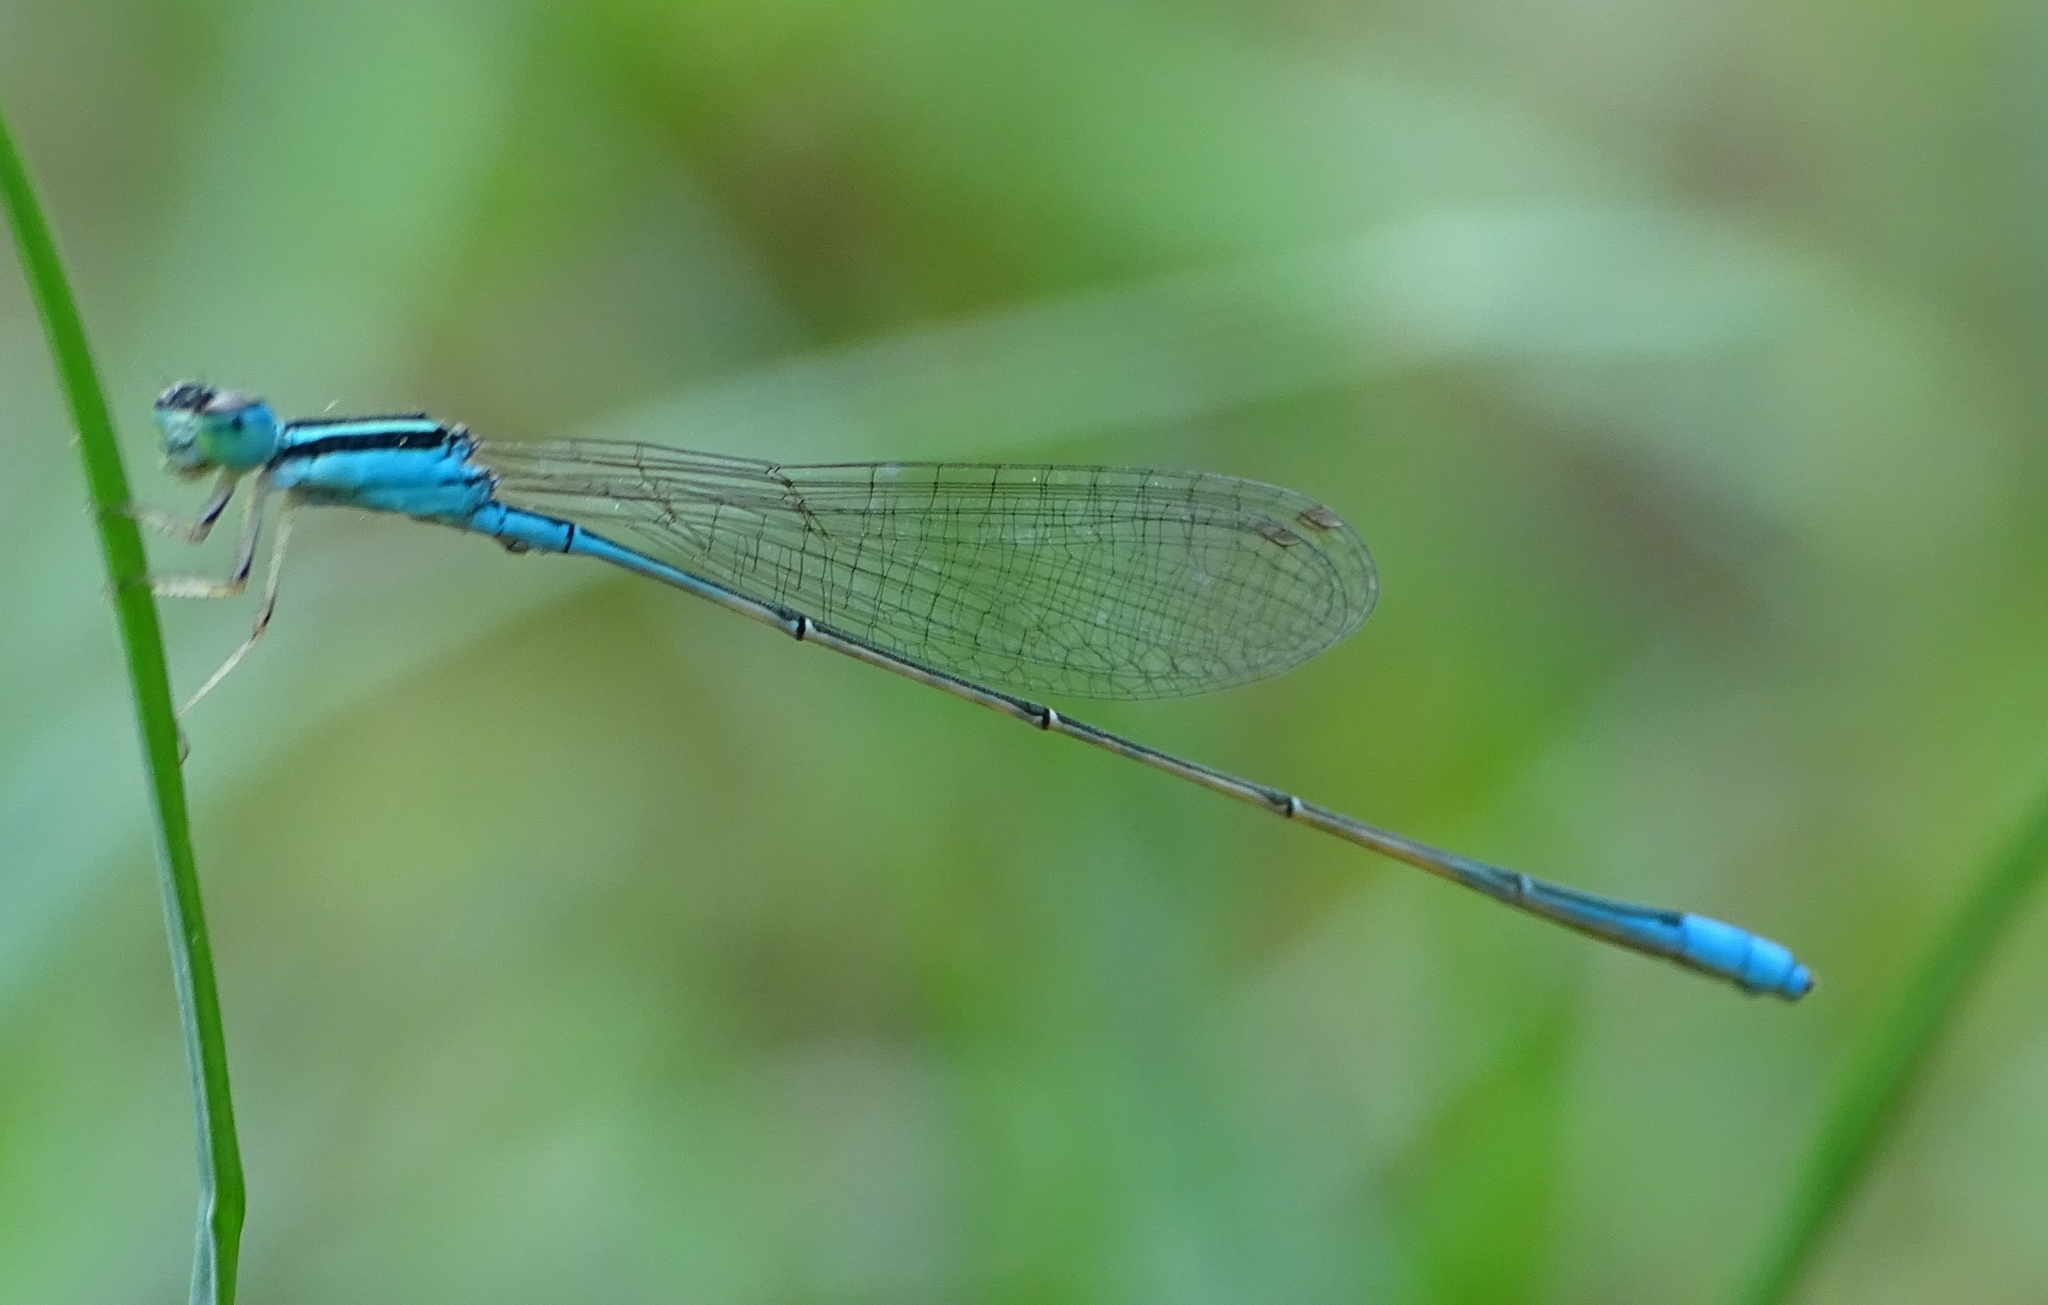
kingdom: Animalia
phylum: Arthropoda
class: Insecta
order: Odonata
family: Coenagrionidae
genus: Aciagrion
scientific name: Aciagrion occidentale
